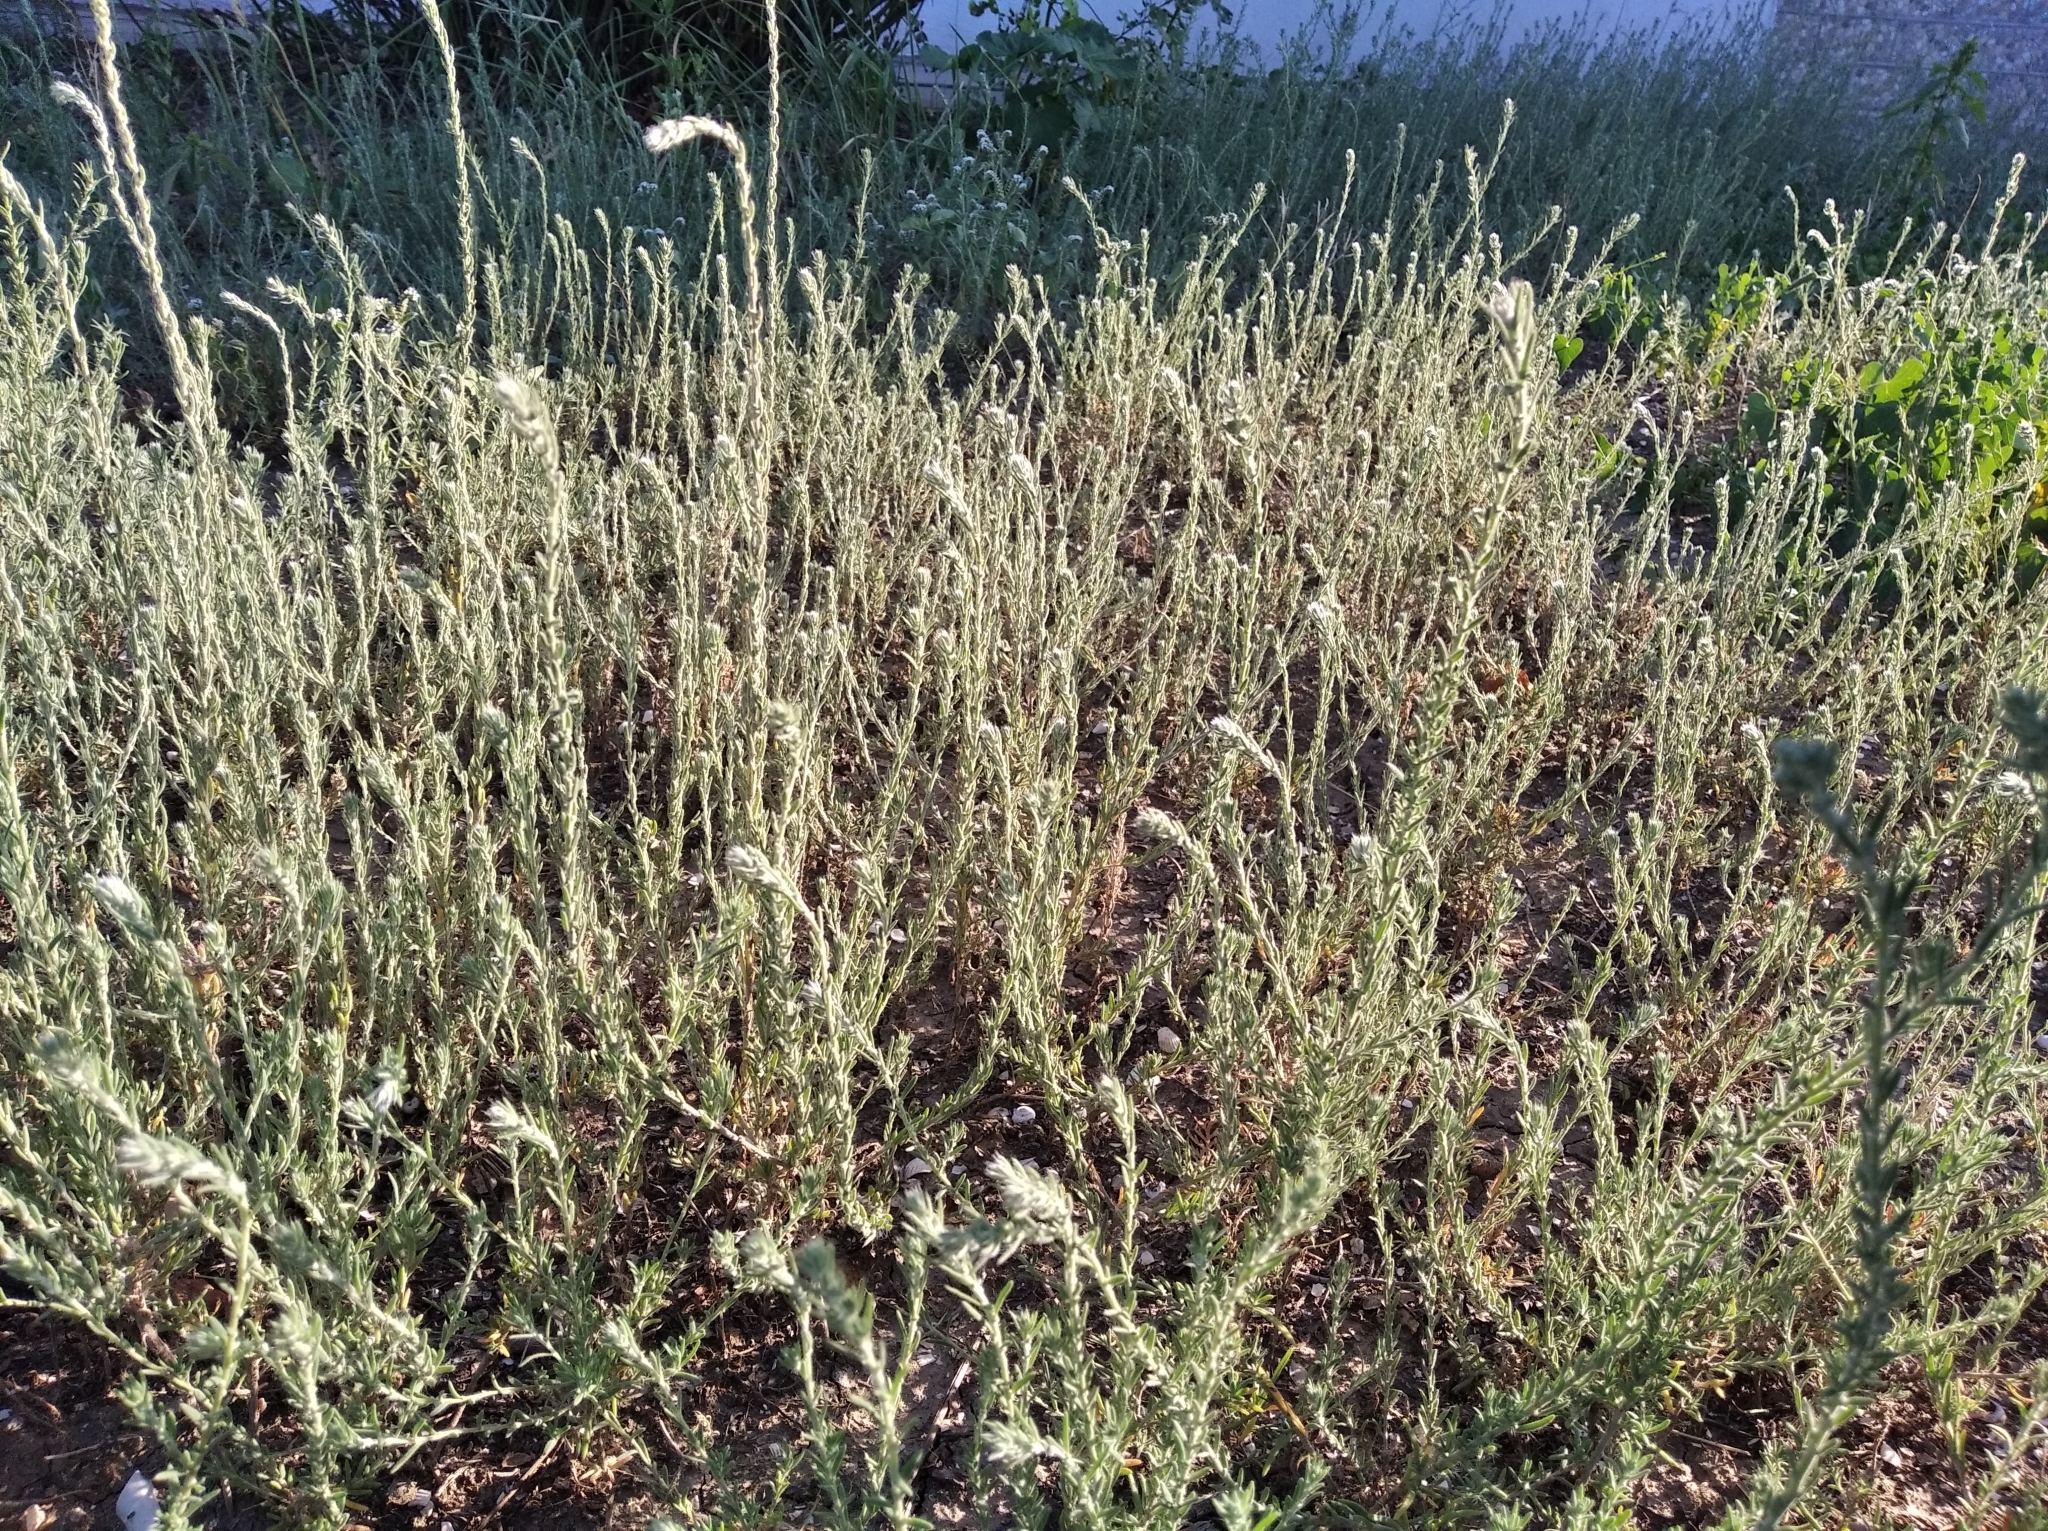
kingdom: Plantae
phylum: Tracheophyta
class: Magnoliopsida
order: Caryophyllales
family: Amaranthaceae
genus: Sedobassia
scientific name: Sedobassia sedoides
